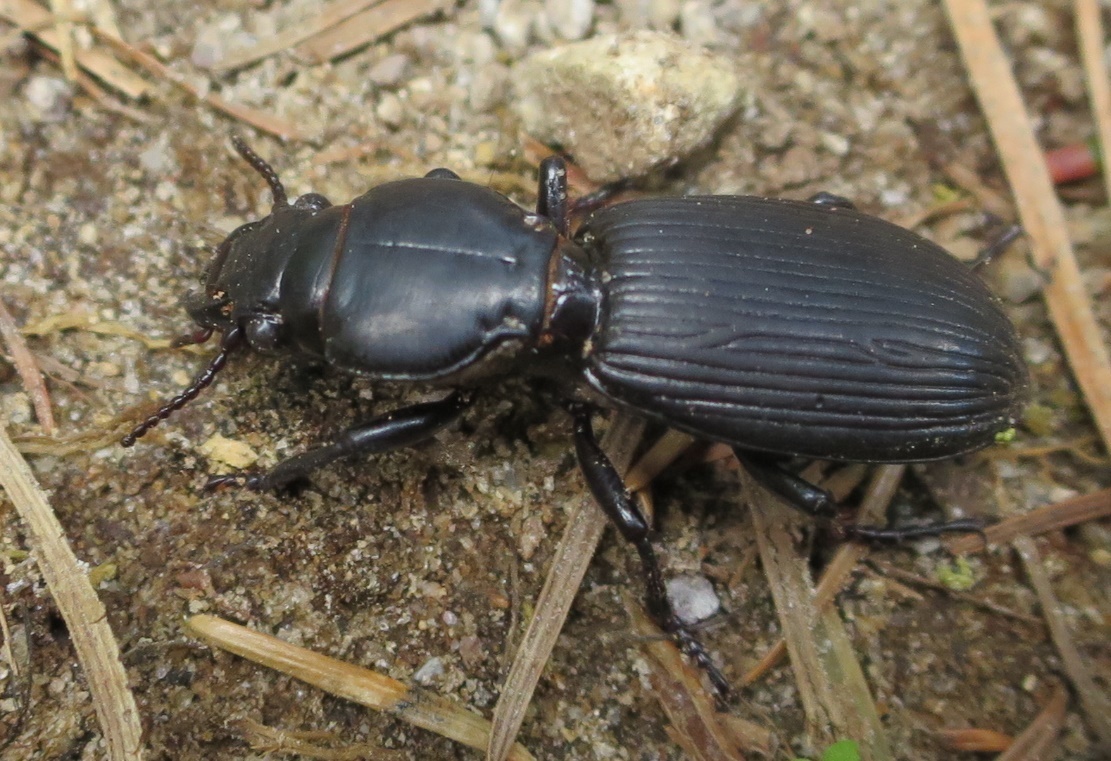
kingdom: Animalia
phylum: Arthropoda
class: Insecta
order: Coleoptera
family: Carabidae
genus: Mecodema
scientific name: Mecodema curvidens
